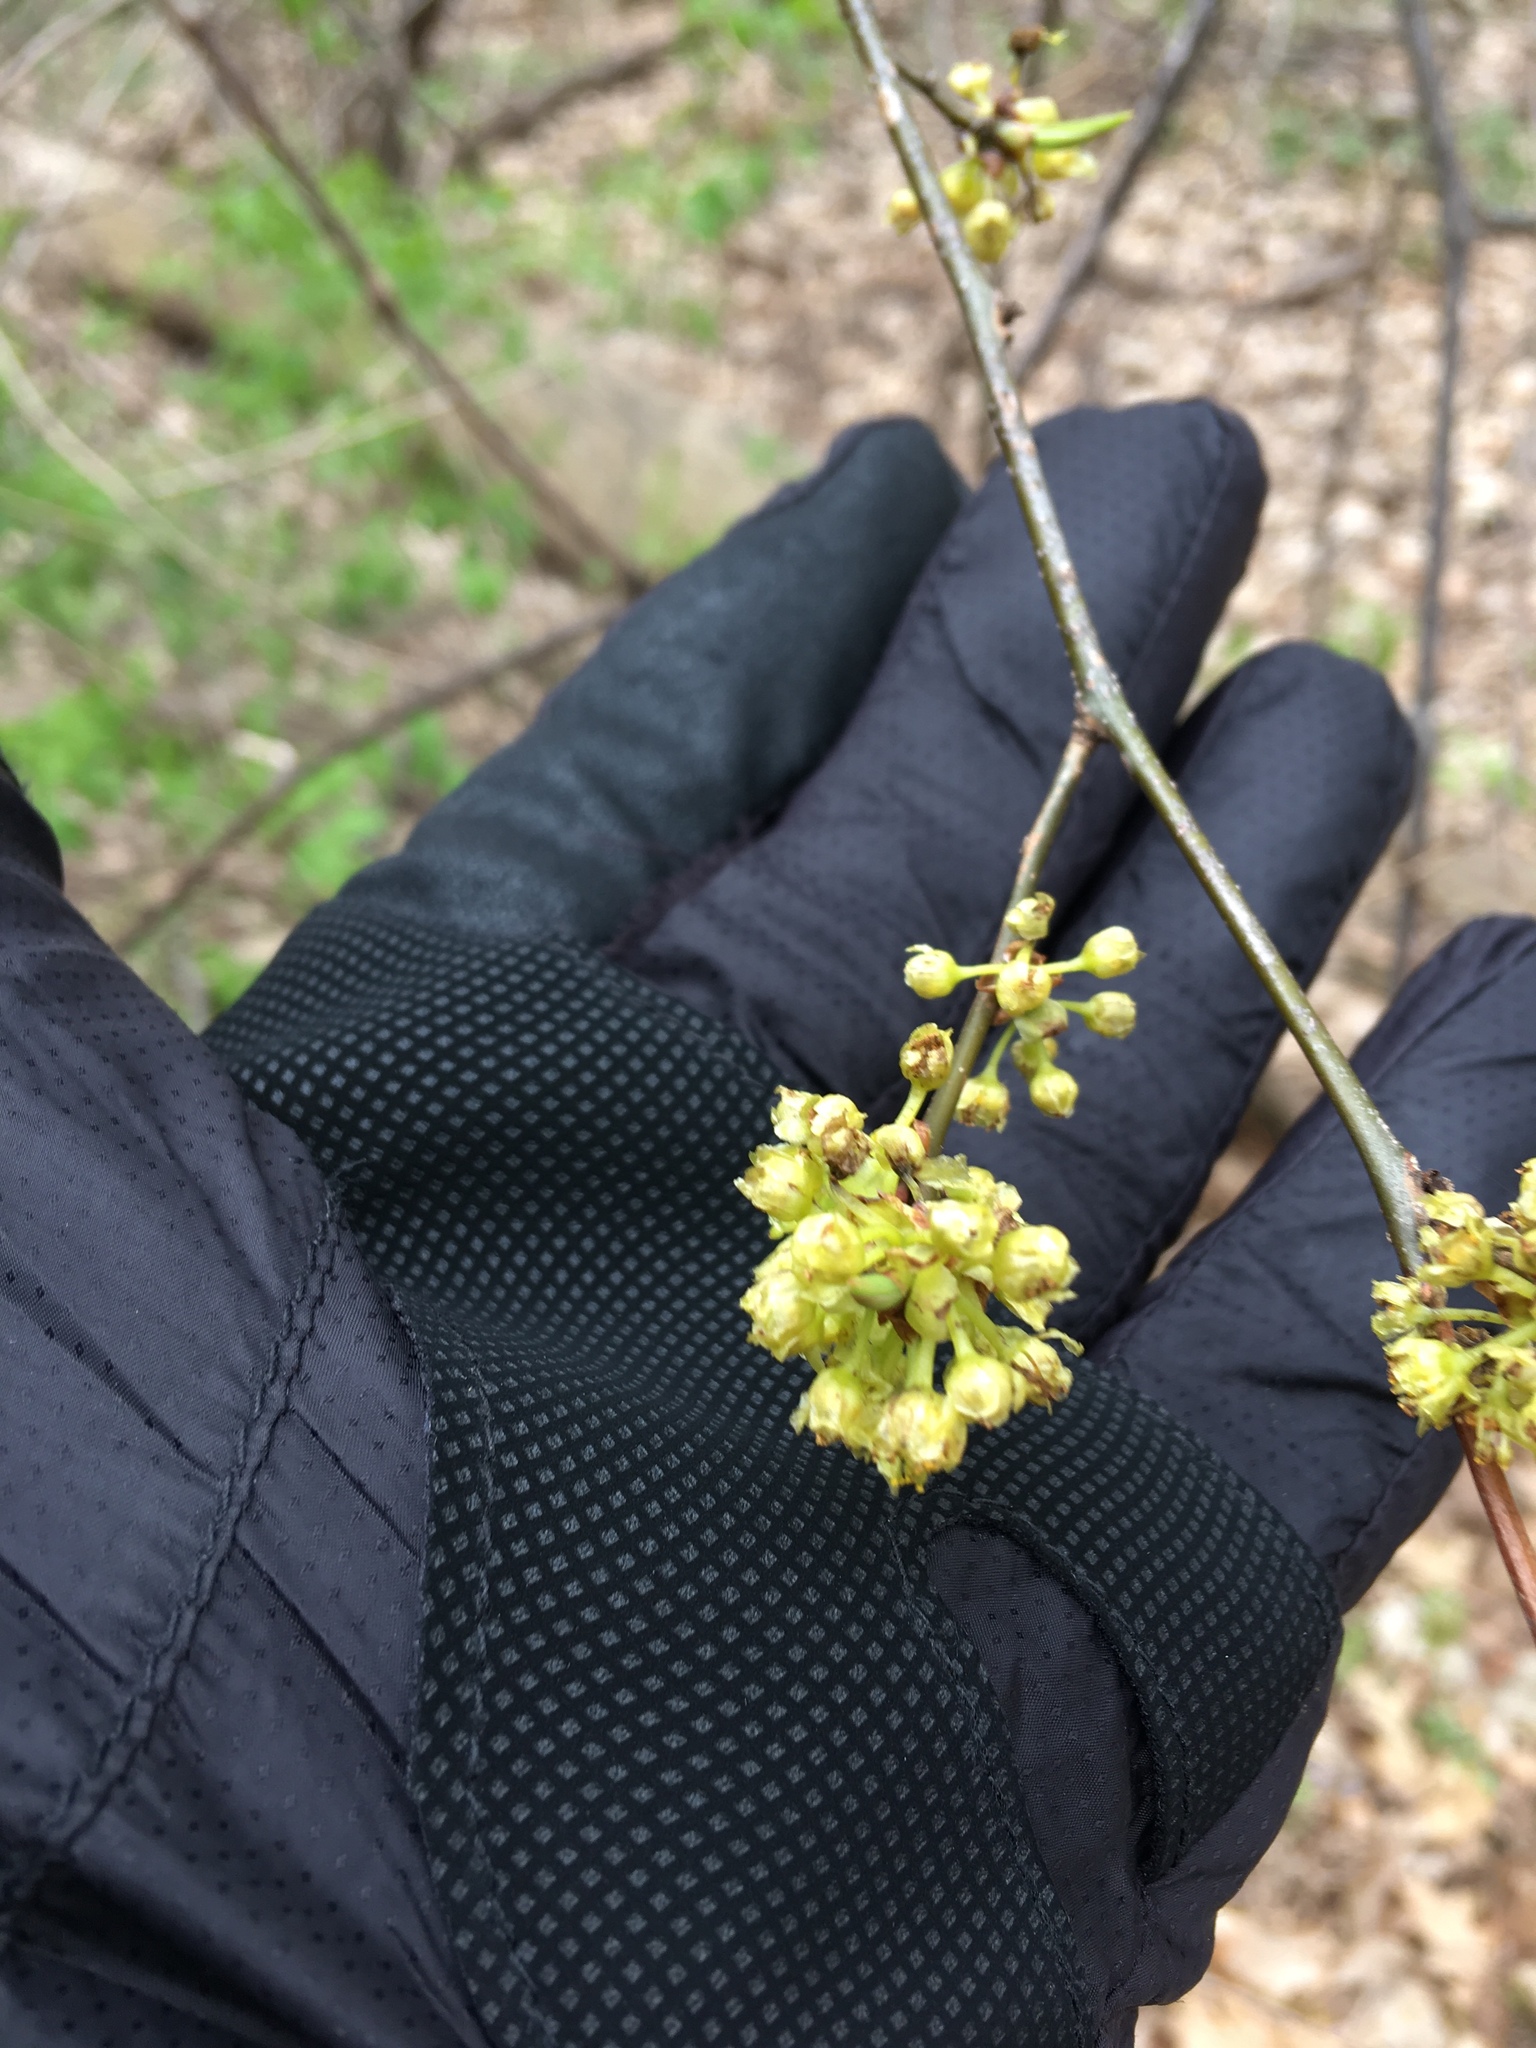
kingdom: Plantae
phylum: Tracheophyta
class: Magnoliopsida
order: Laurales
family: Lauraceae
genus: Lindera
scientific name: Lindera benzoin
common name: Spicebush
